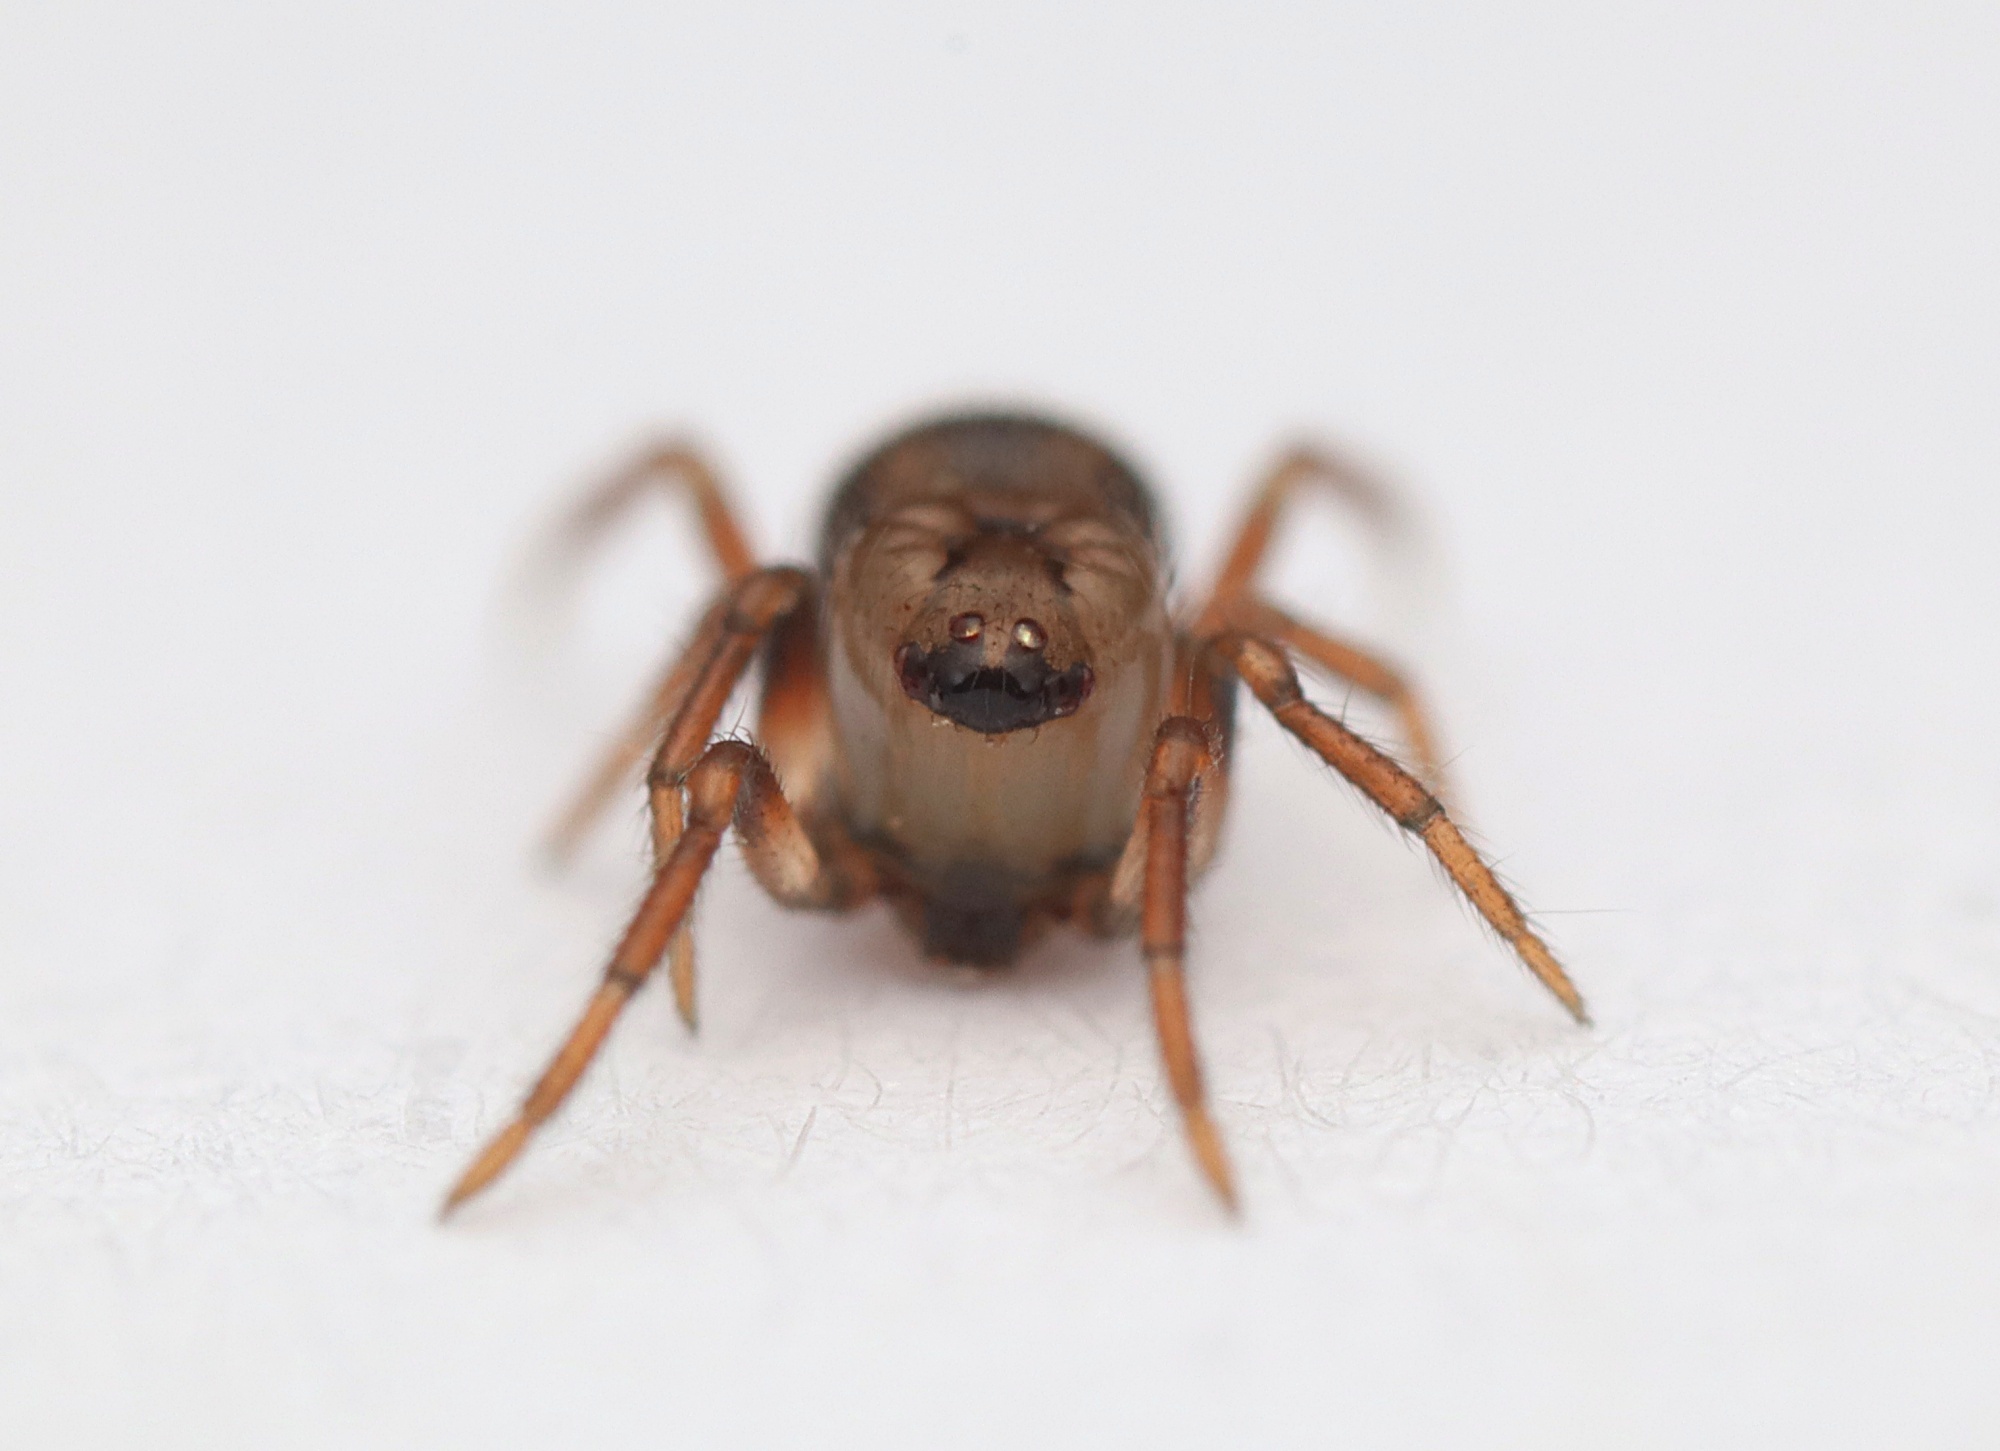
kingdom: Animalia
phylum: Arthropoda
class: Arachnida
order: Araneae
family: Theridiidae
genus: Phycosoma
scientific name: Phycosoma oecobioides
